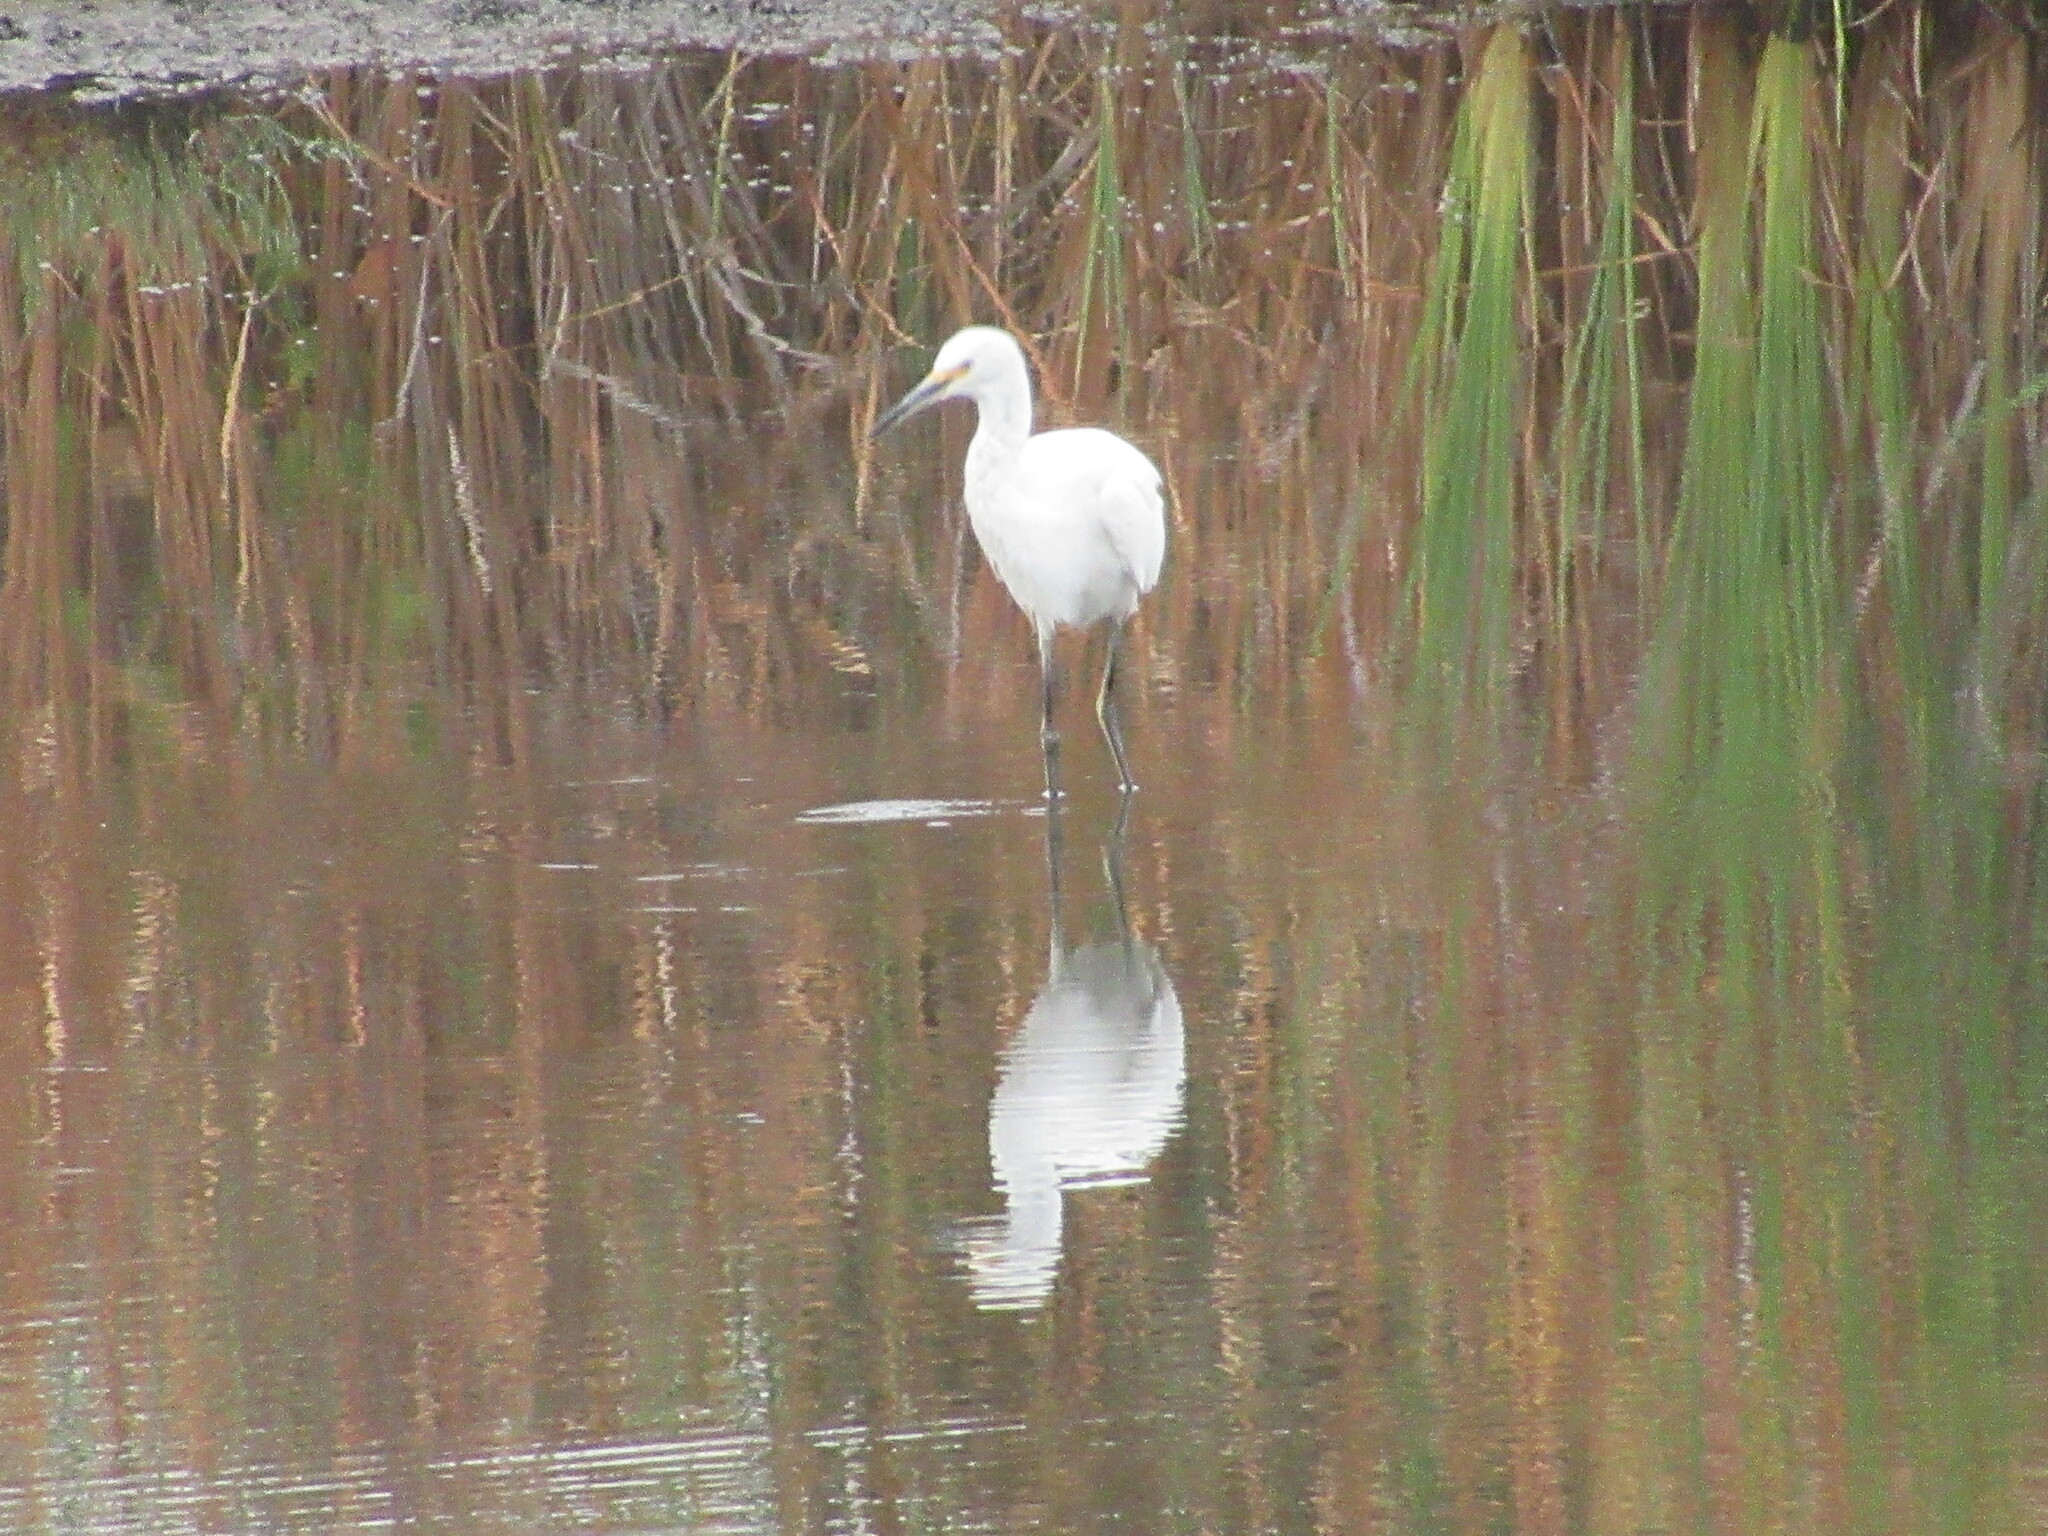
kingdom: Animalia
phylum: Chordata
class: Aves
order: Pelecaniformes
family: Ardeidae
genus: Egretta
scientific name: Egretta thula
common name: Snowy egret
